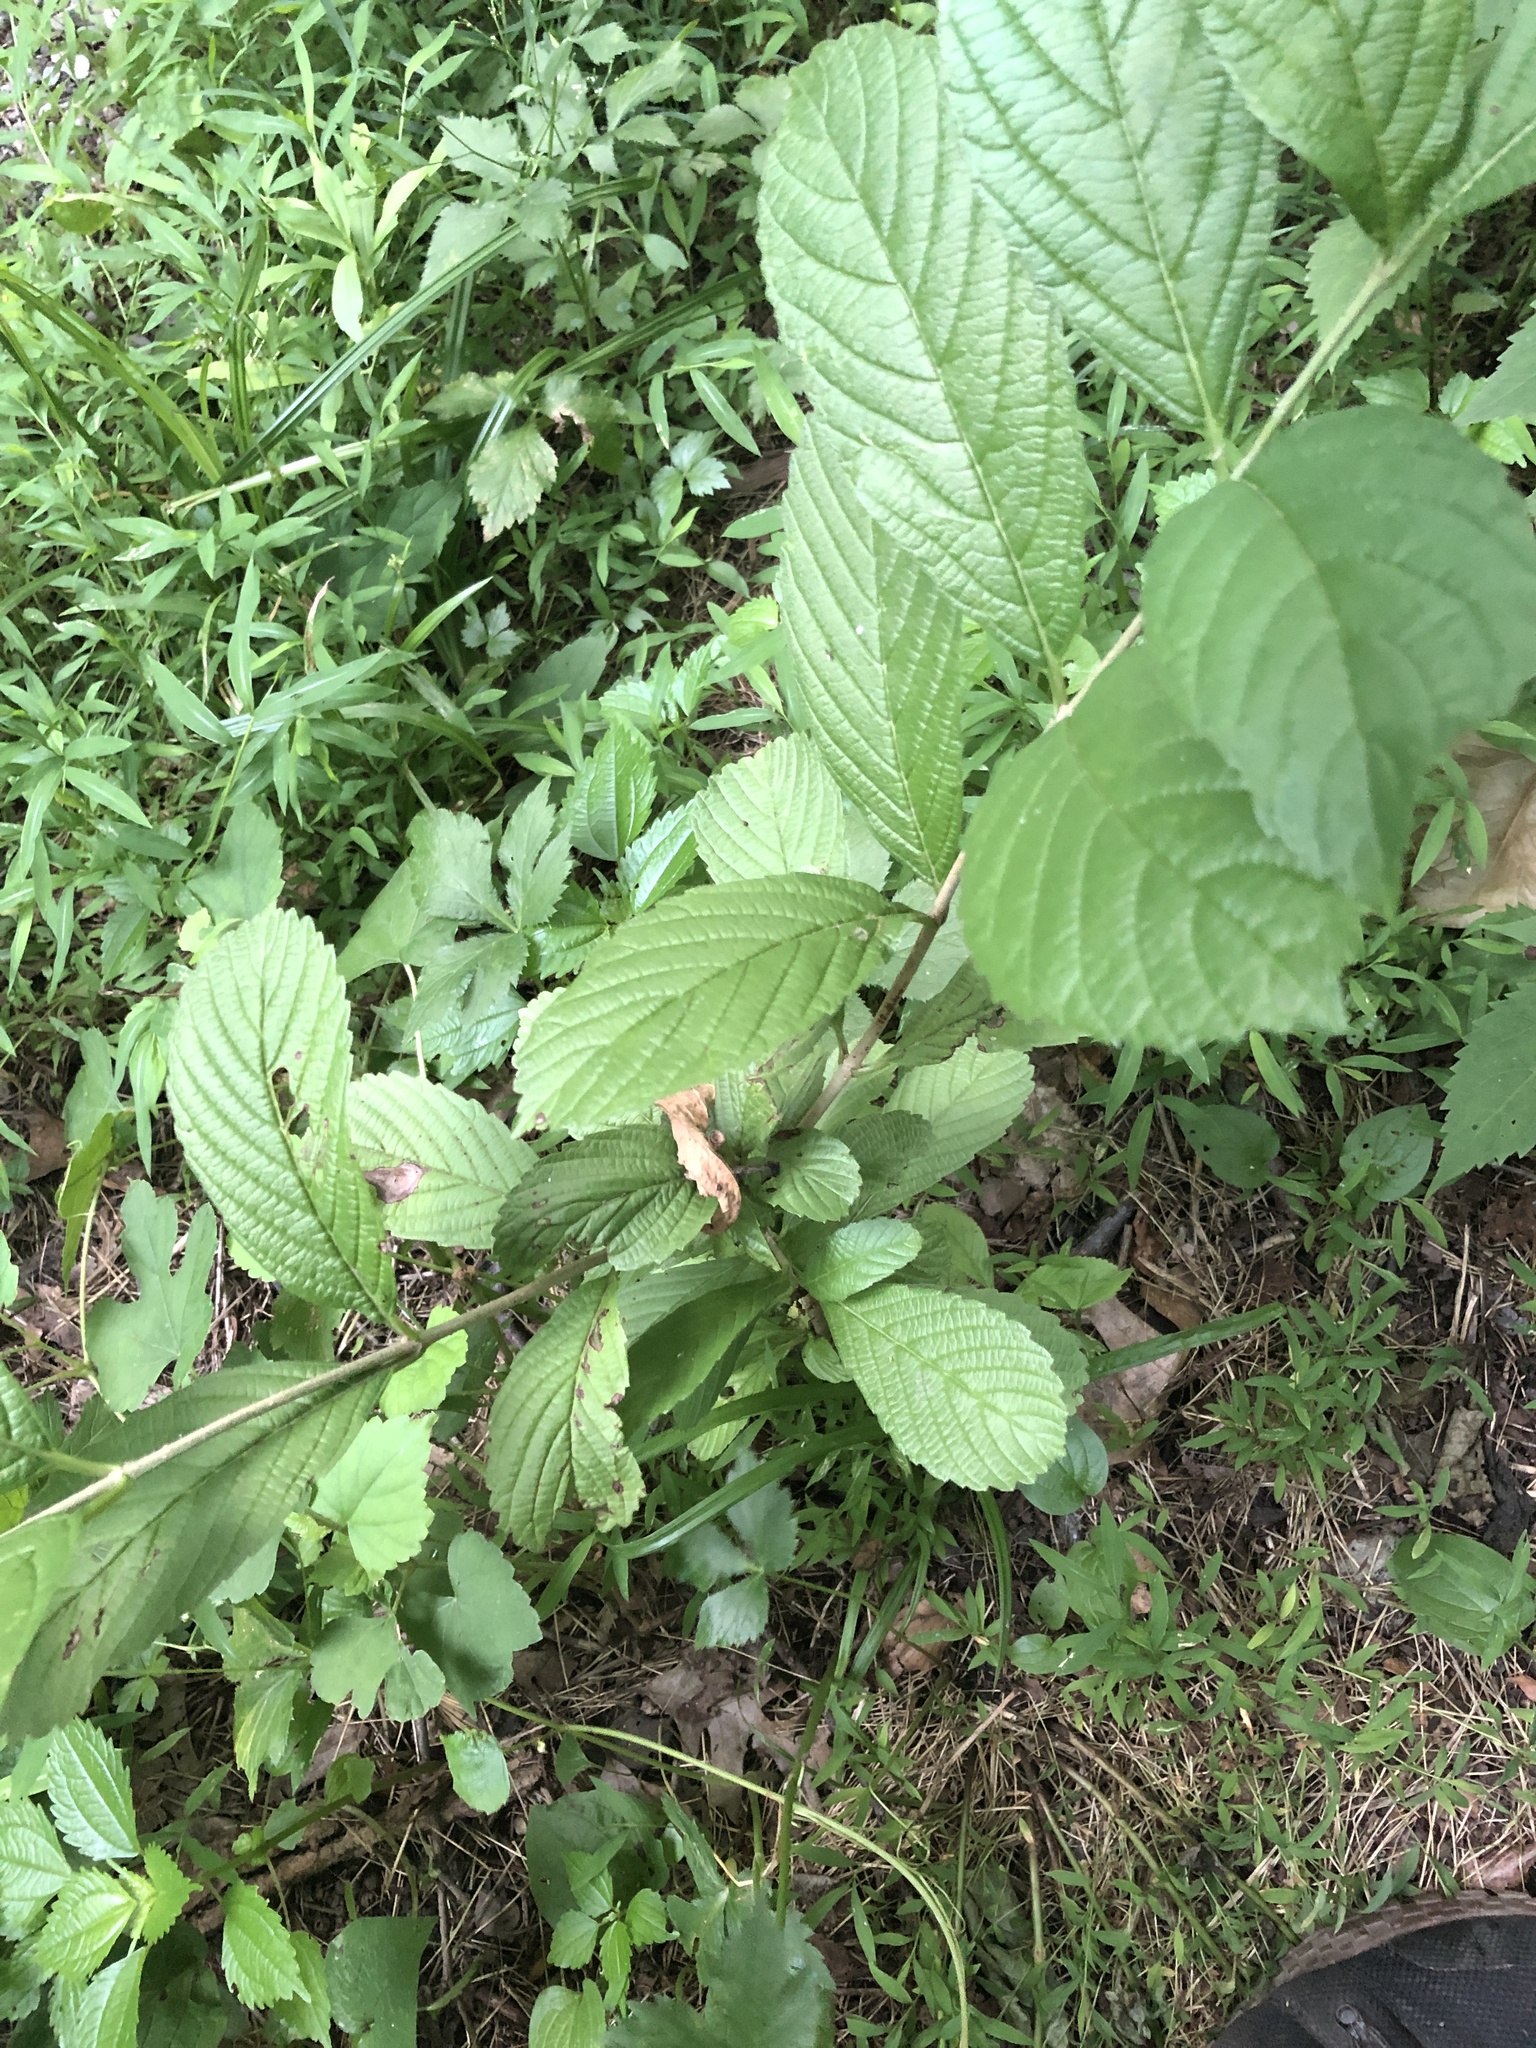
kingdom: Plantae
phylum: Tracheophyta
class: Magnoliopsida
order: Dipsacales
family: Viburnaceae
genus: Viburnum
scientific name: Viburnum sieboldii
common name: Siebold's arrowwood
